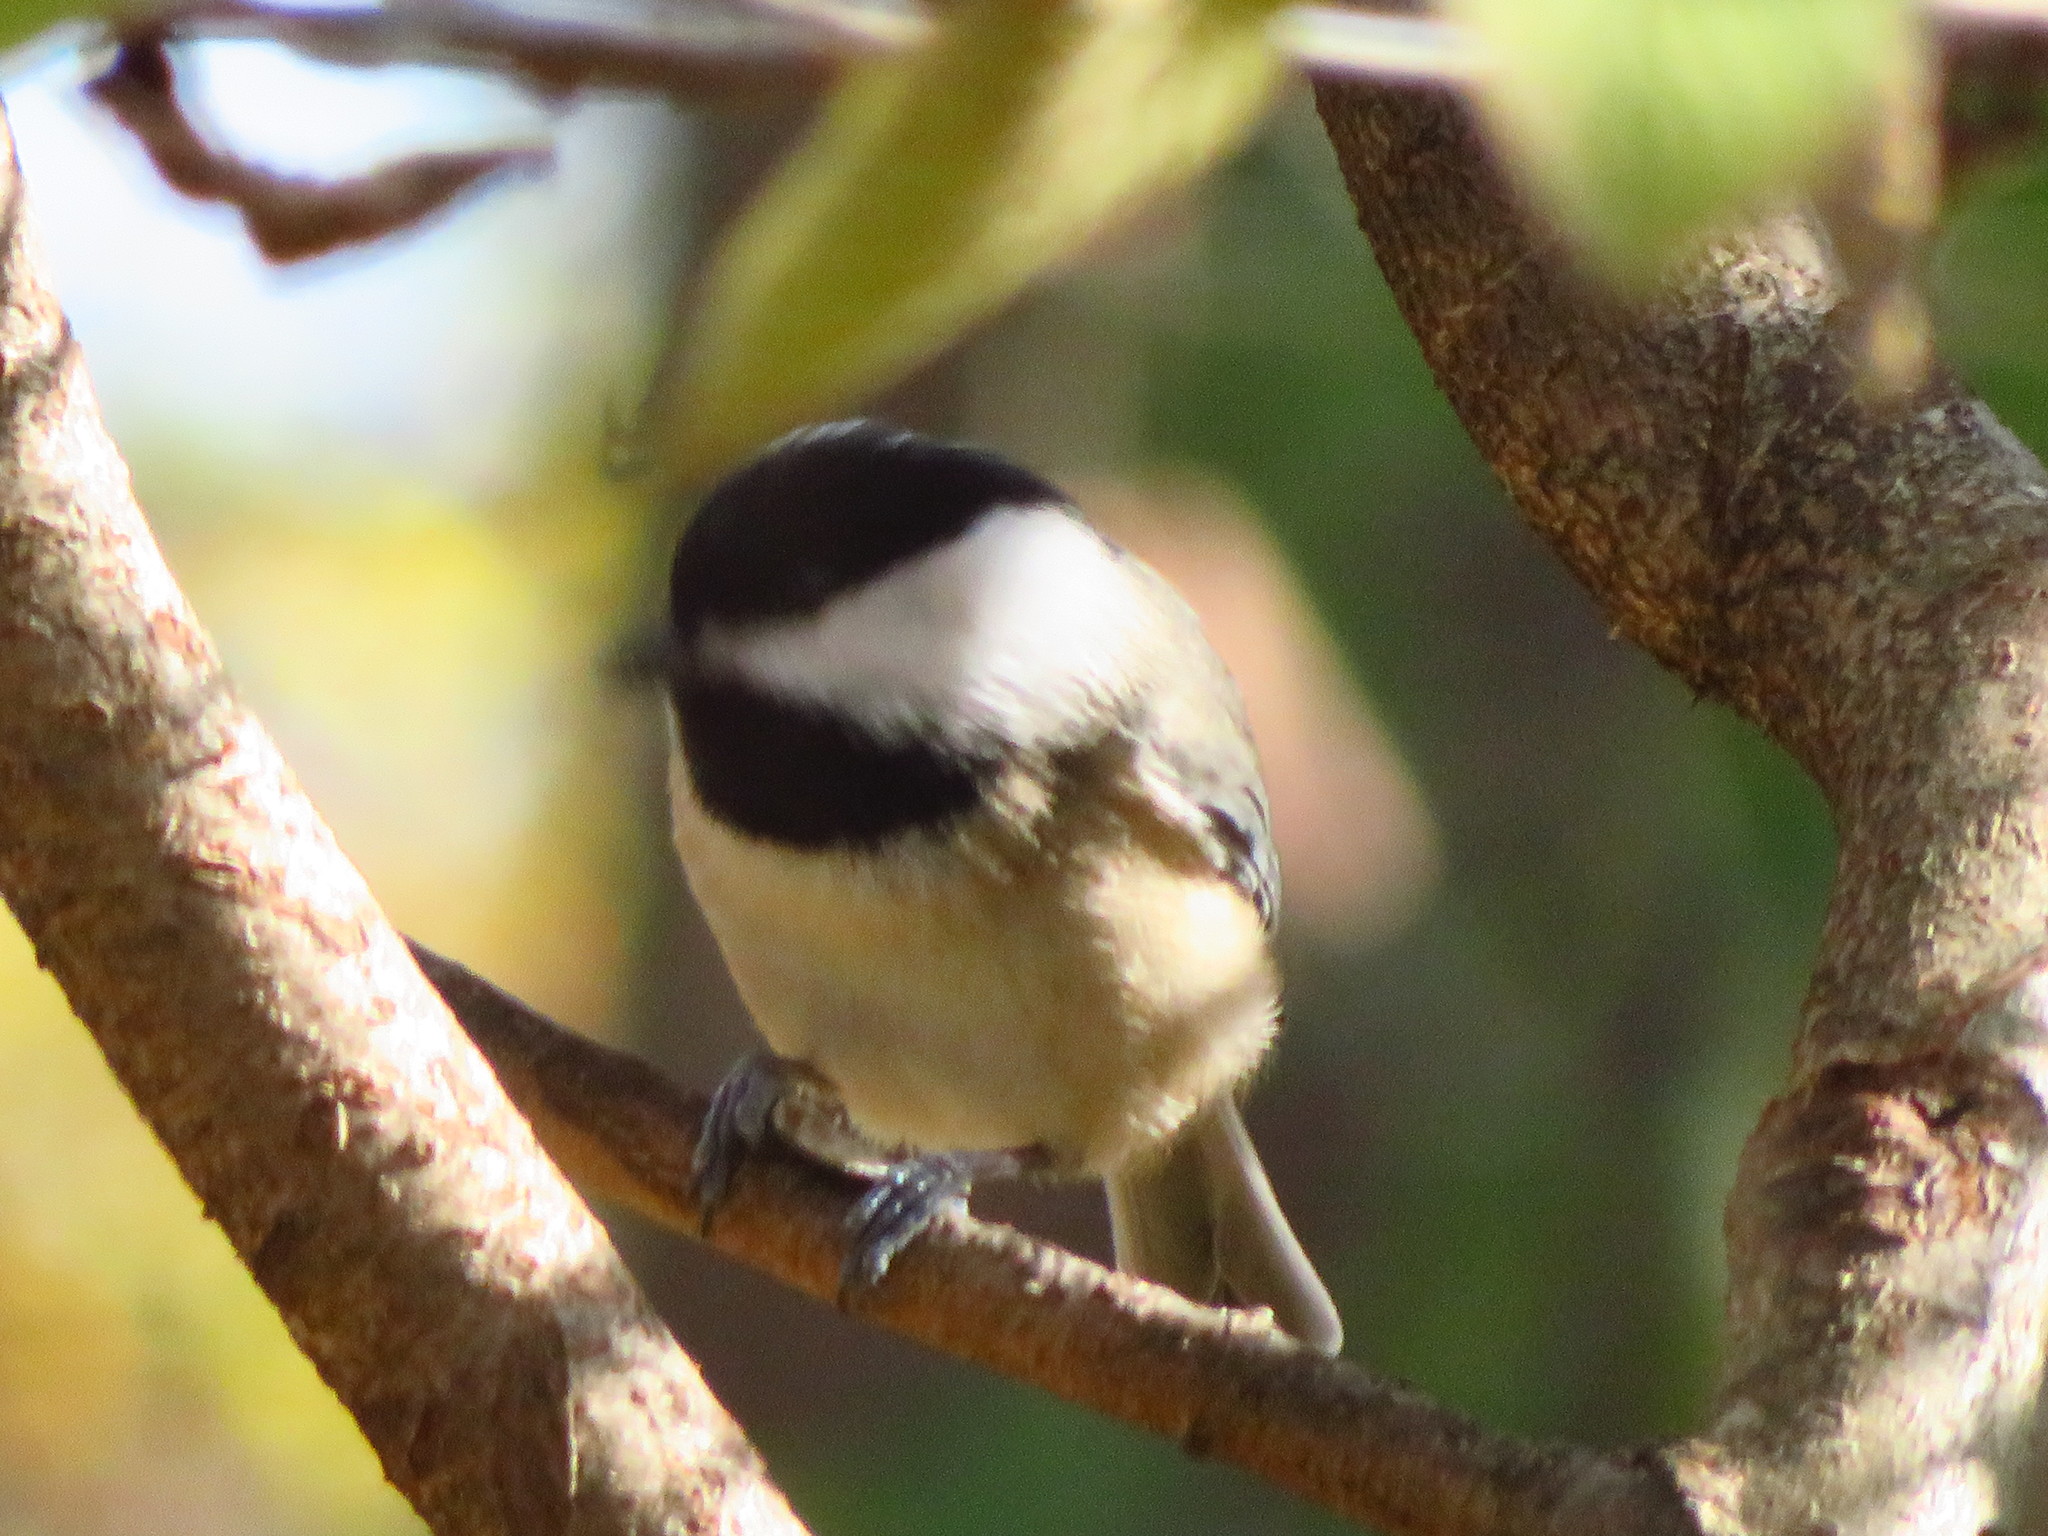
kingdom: Animalia
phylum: Chordata
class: Aves
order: Passeriformes
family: Paridae
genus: Poecile
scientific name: Poecile carolinensis
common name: Carolina chickadee
